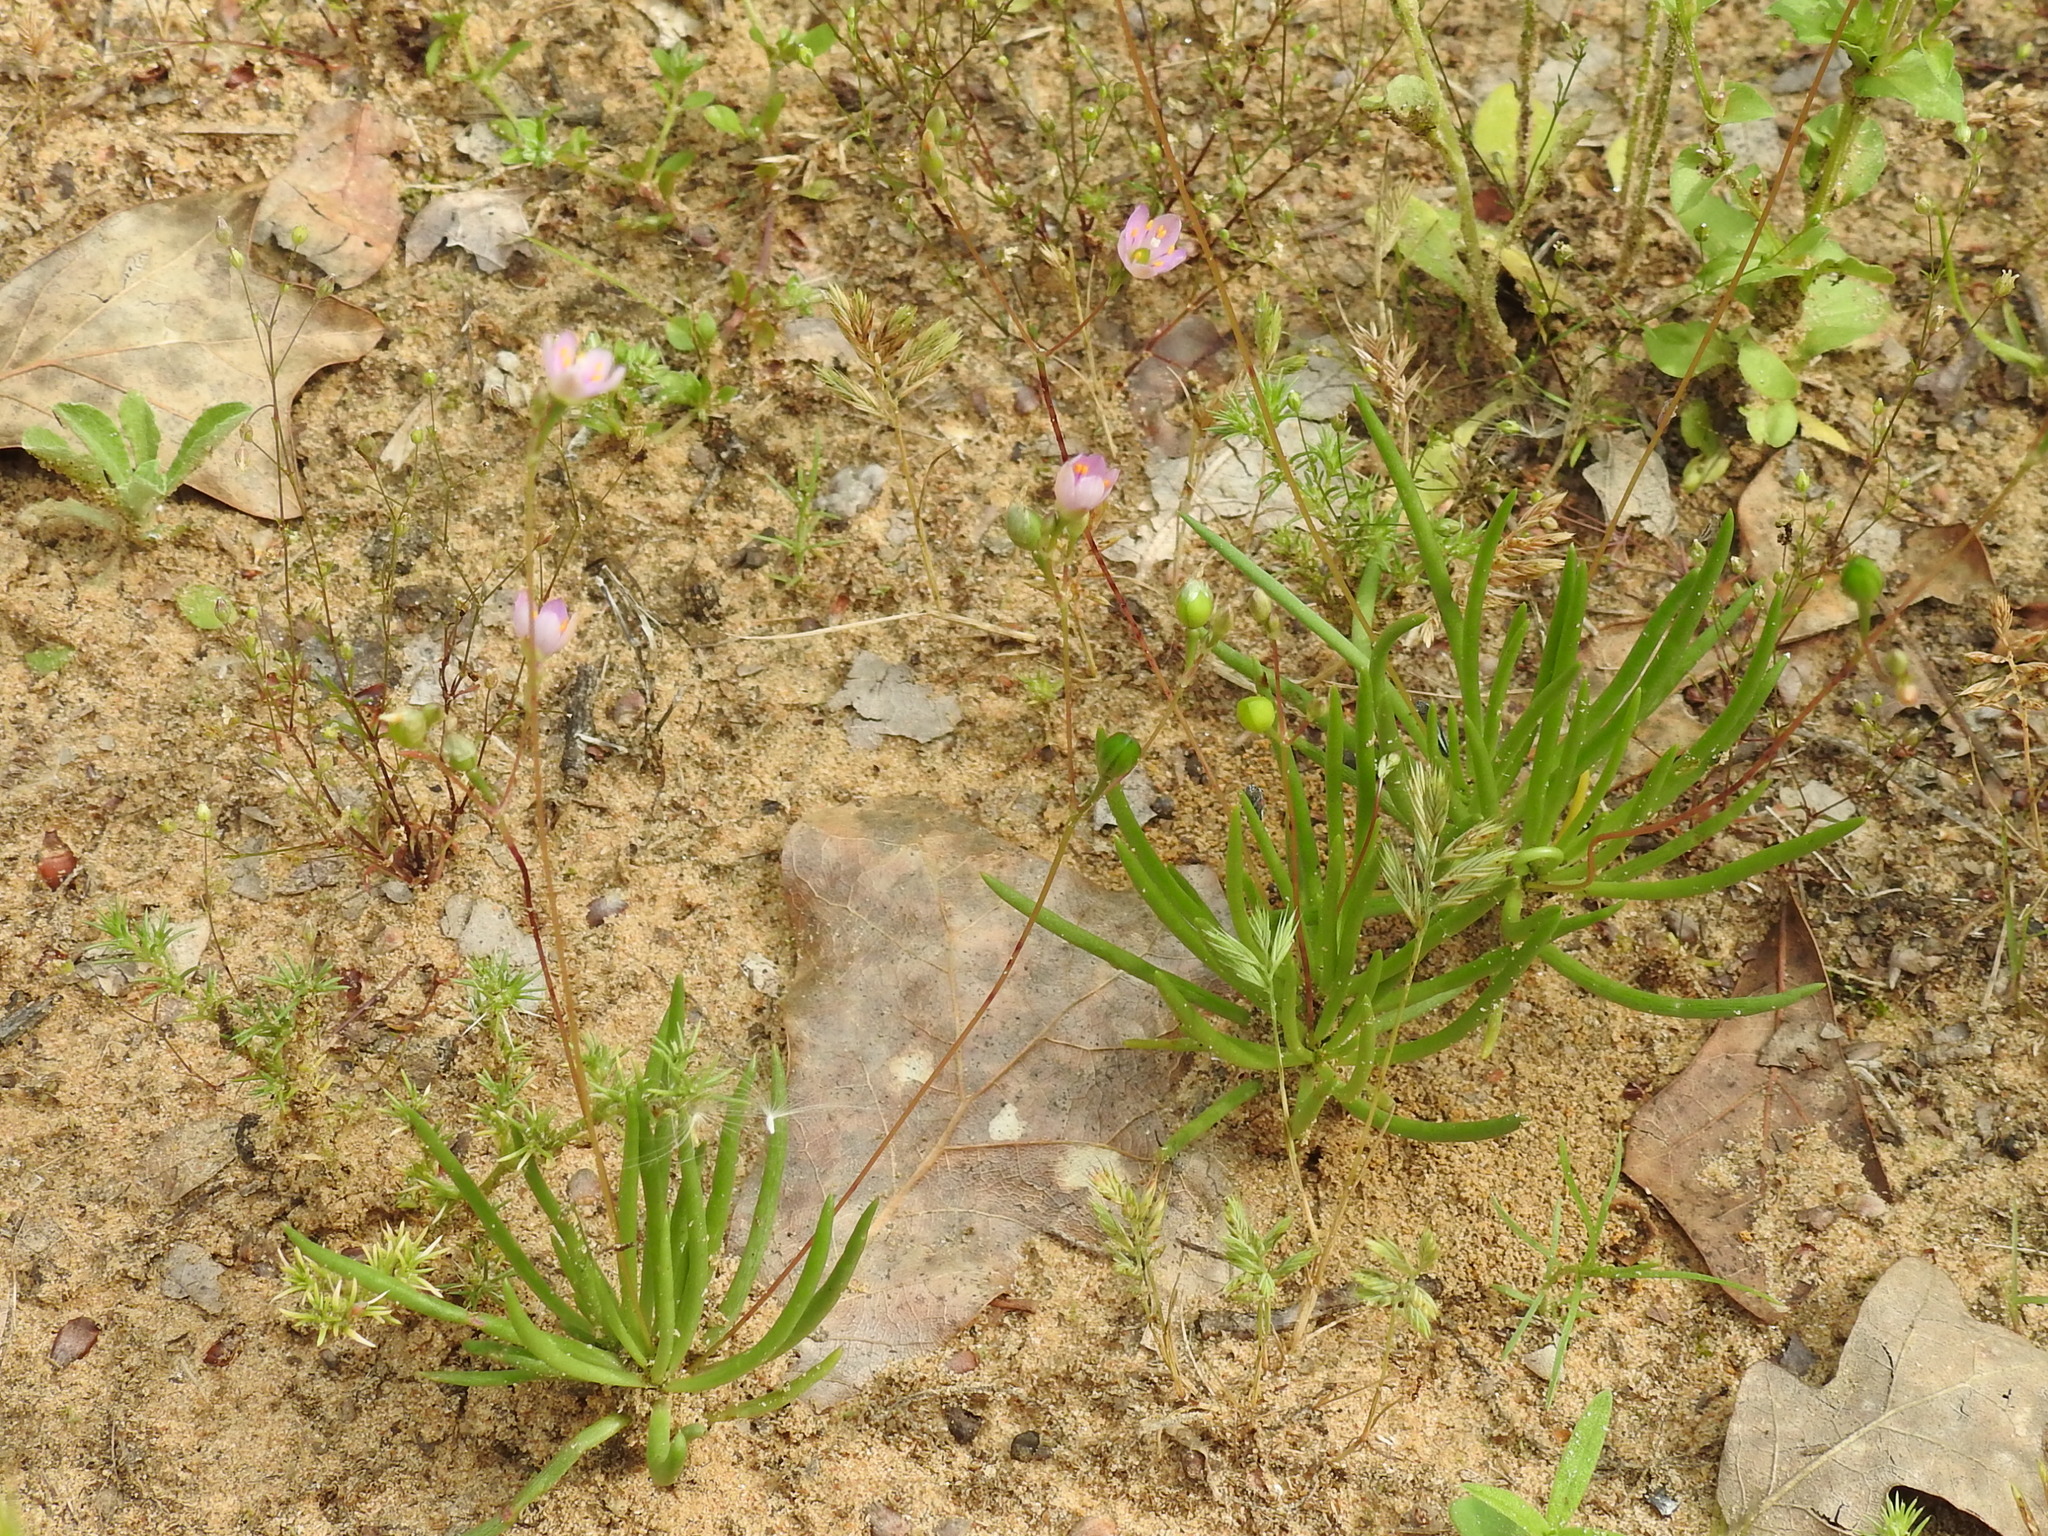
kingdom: Plantae
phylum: Tracheophyta
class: Magnoliopsida
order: Caryophyllales
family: Montiaceae
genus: Phemeranthus
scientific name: Phemeranthus parviflorus
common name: Sunbright
